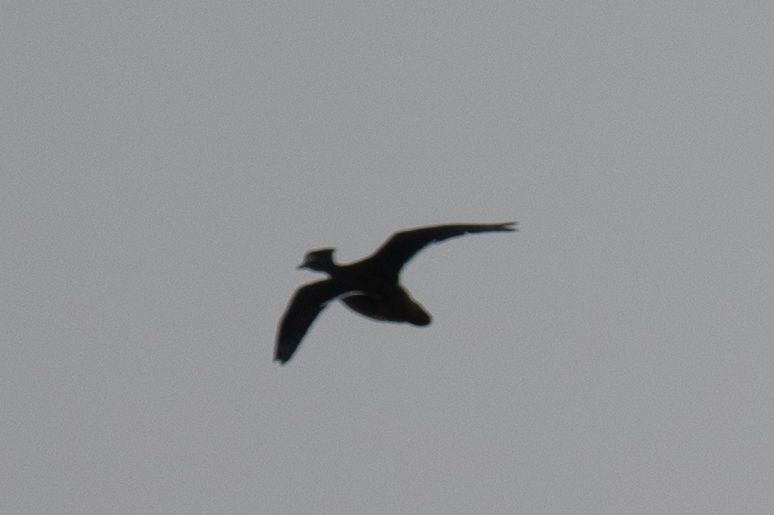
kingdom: Animalia
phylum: Chordata
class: Aves
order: Anseriformes
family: Anatidae
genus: Aix
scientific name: Aix sponsa
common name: Wood duck
